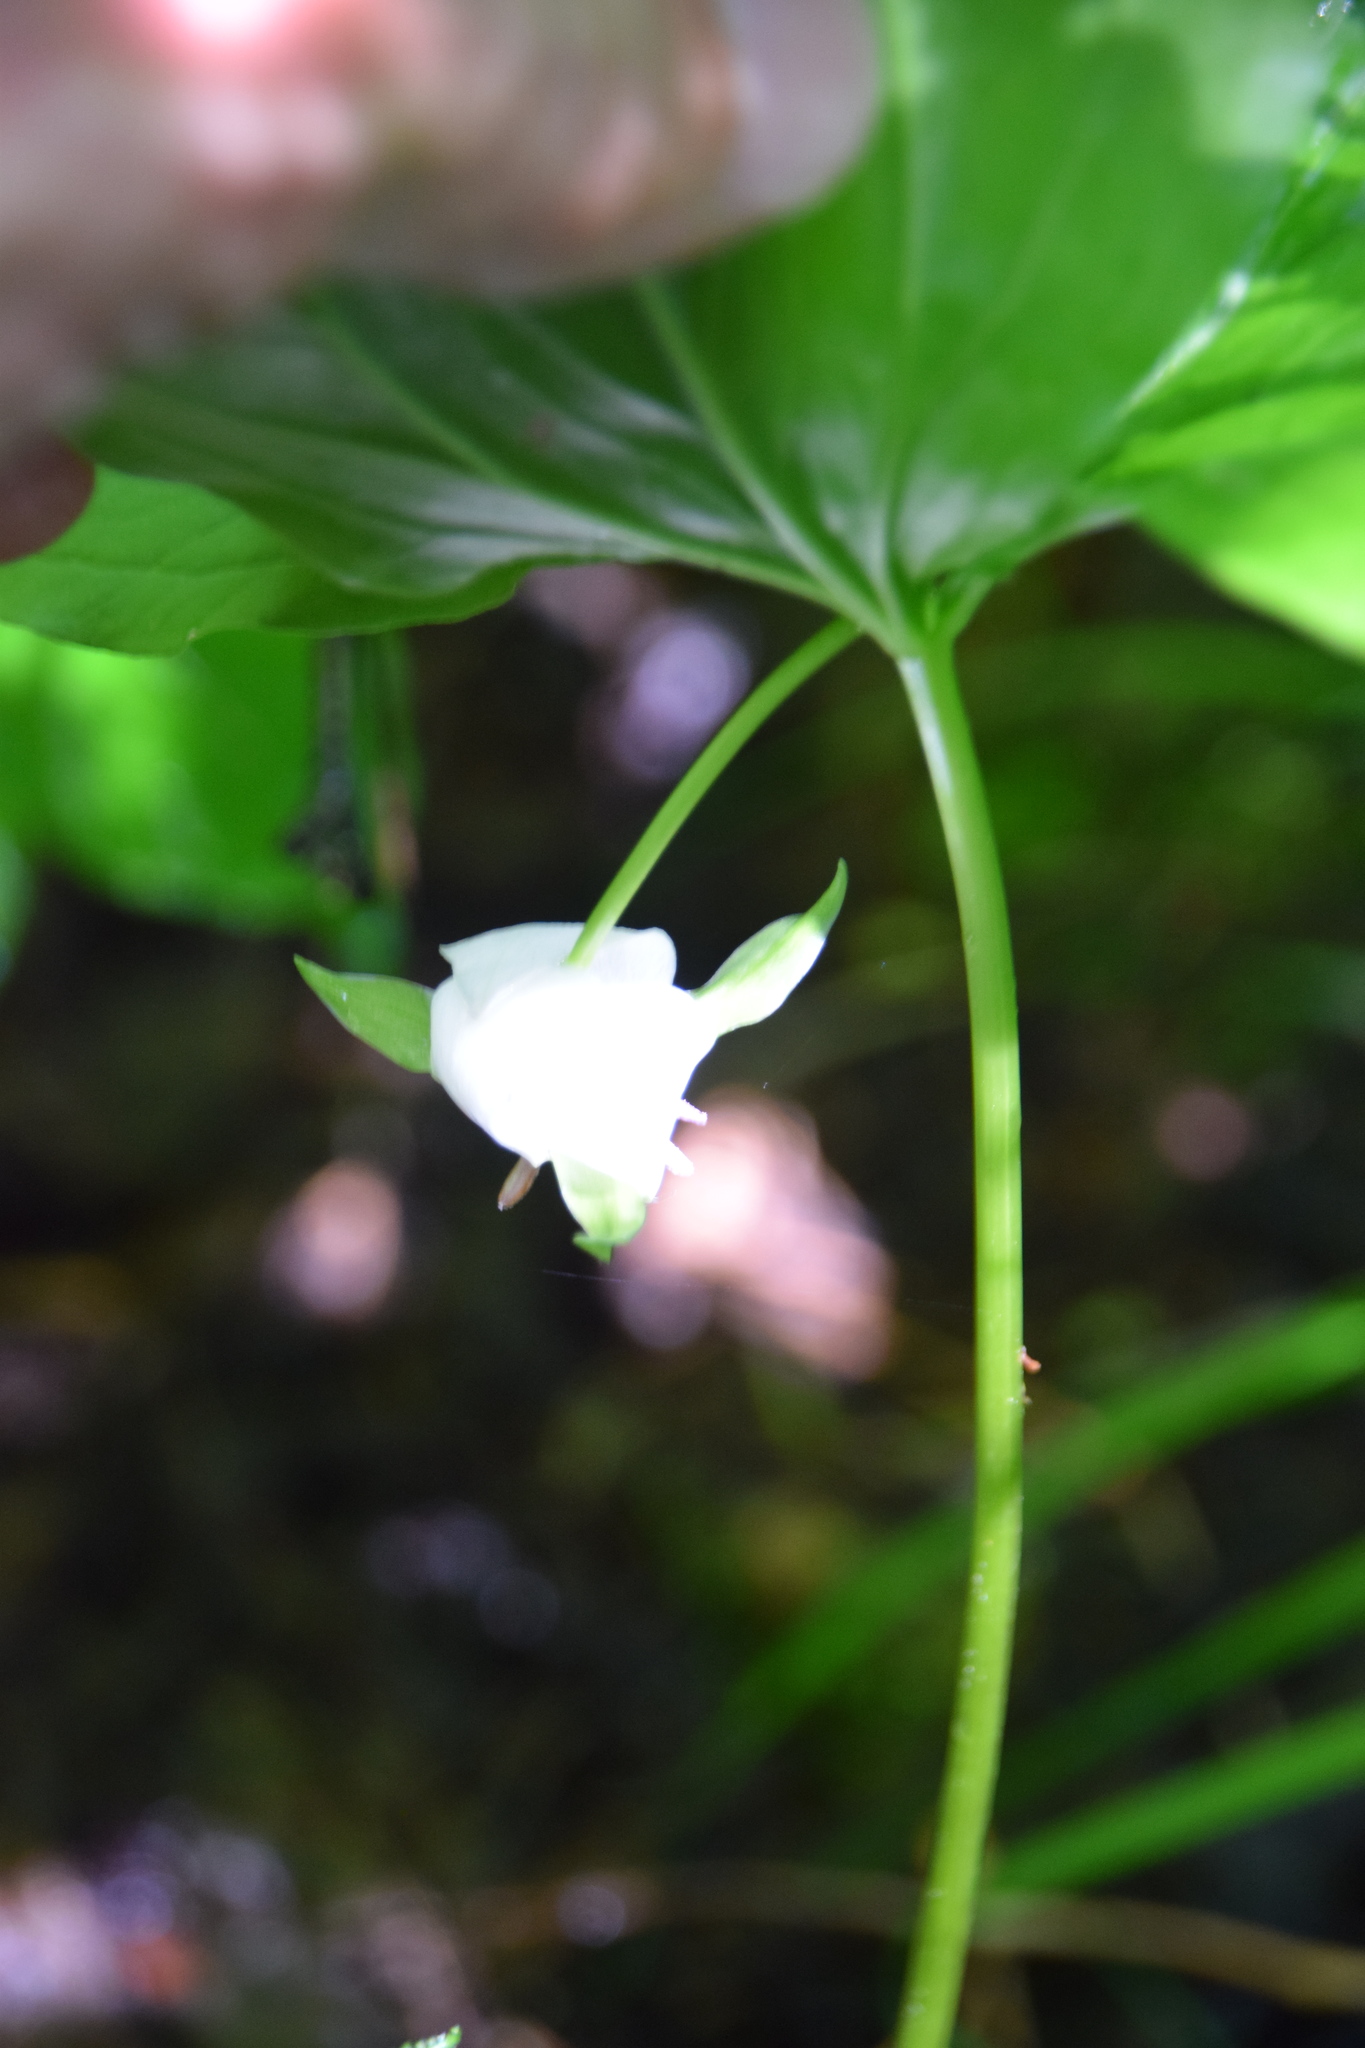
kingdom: Plantae
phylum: Tracheophyta
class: Liliopsida
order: Liliales
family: Melanthiaceae
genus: Trillium
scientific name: Trillium cernuum
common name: Nodding trillium
